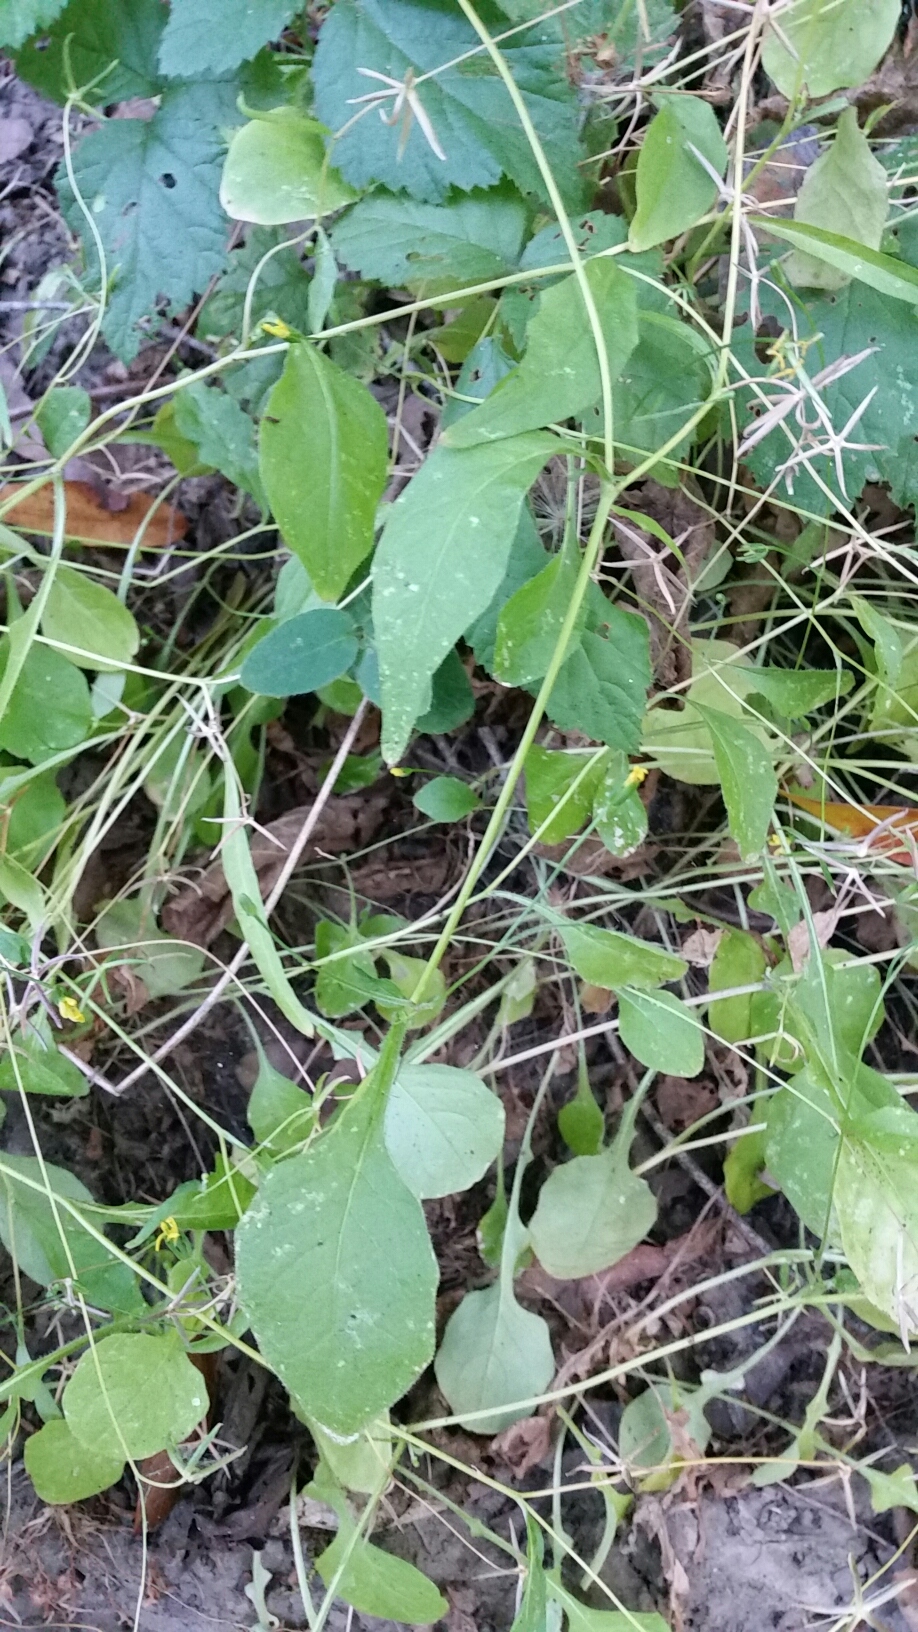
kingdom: Plantae
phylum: Tracheophyta
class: Magnoliopsida
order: Asterales
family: Asteraceae
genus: Rhagadiolus
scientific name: Rhagadiolus stellatus
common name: Star hawkbit
